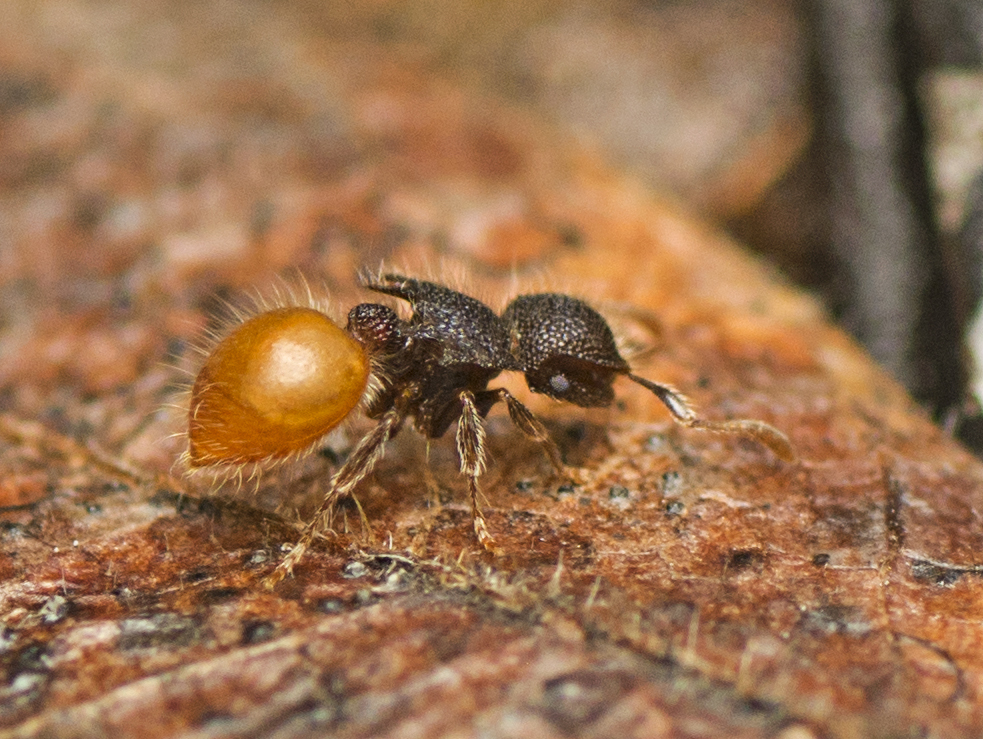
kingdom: Animalia
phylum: Arthropoda
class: Insecta
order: Hymenoptera
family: Formicidae
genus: Meranoplus
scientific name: Meranoplus hirsutus
